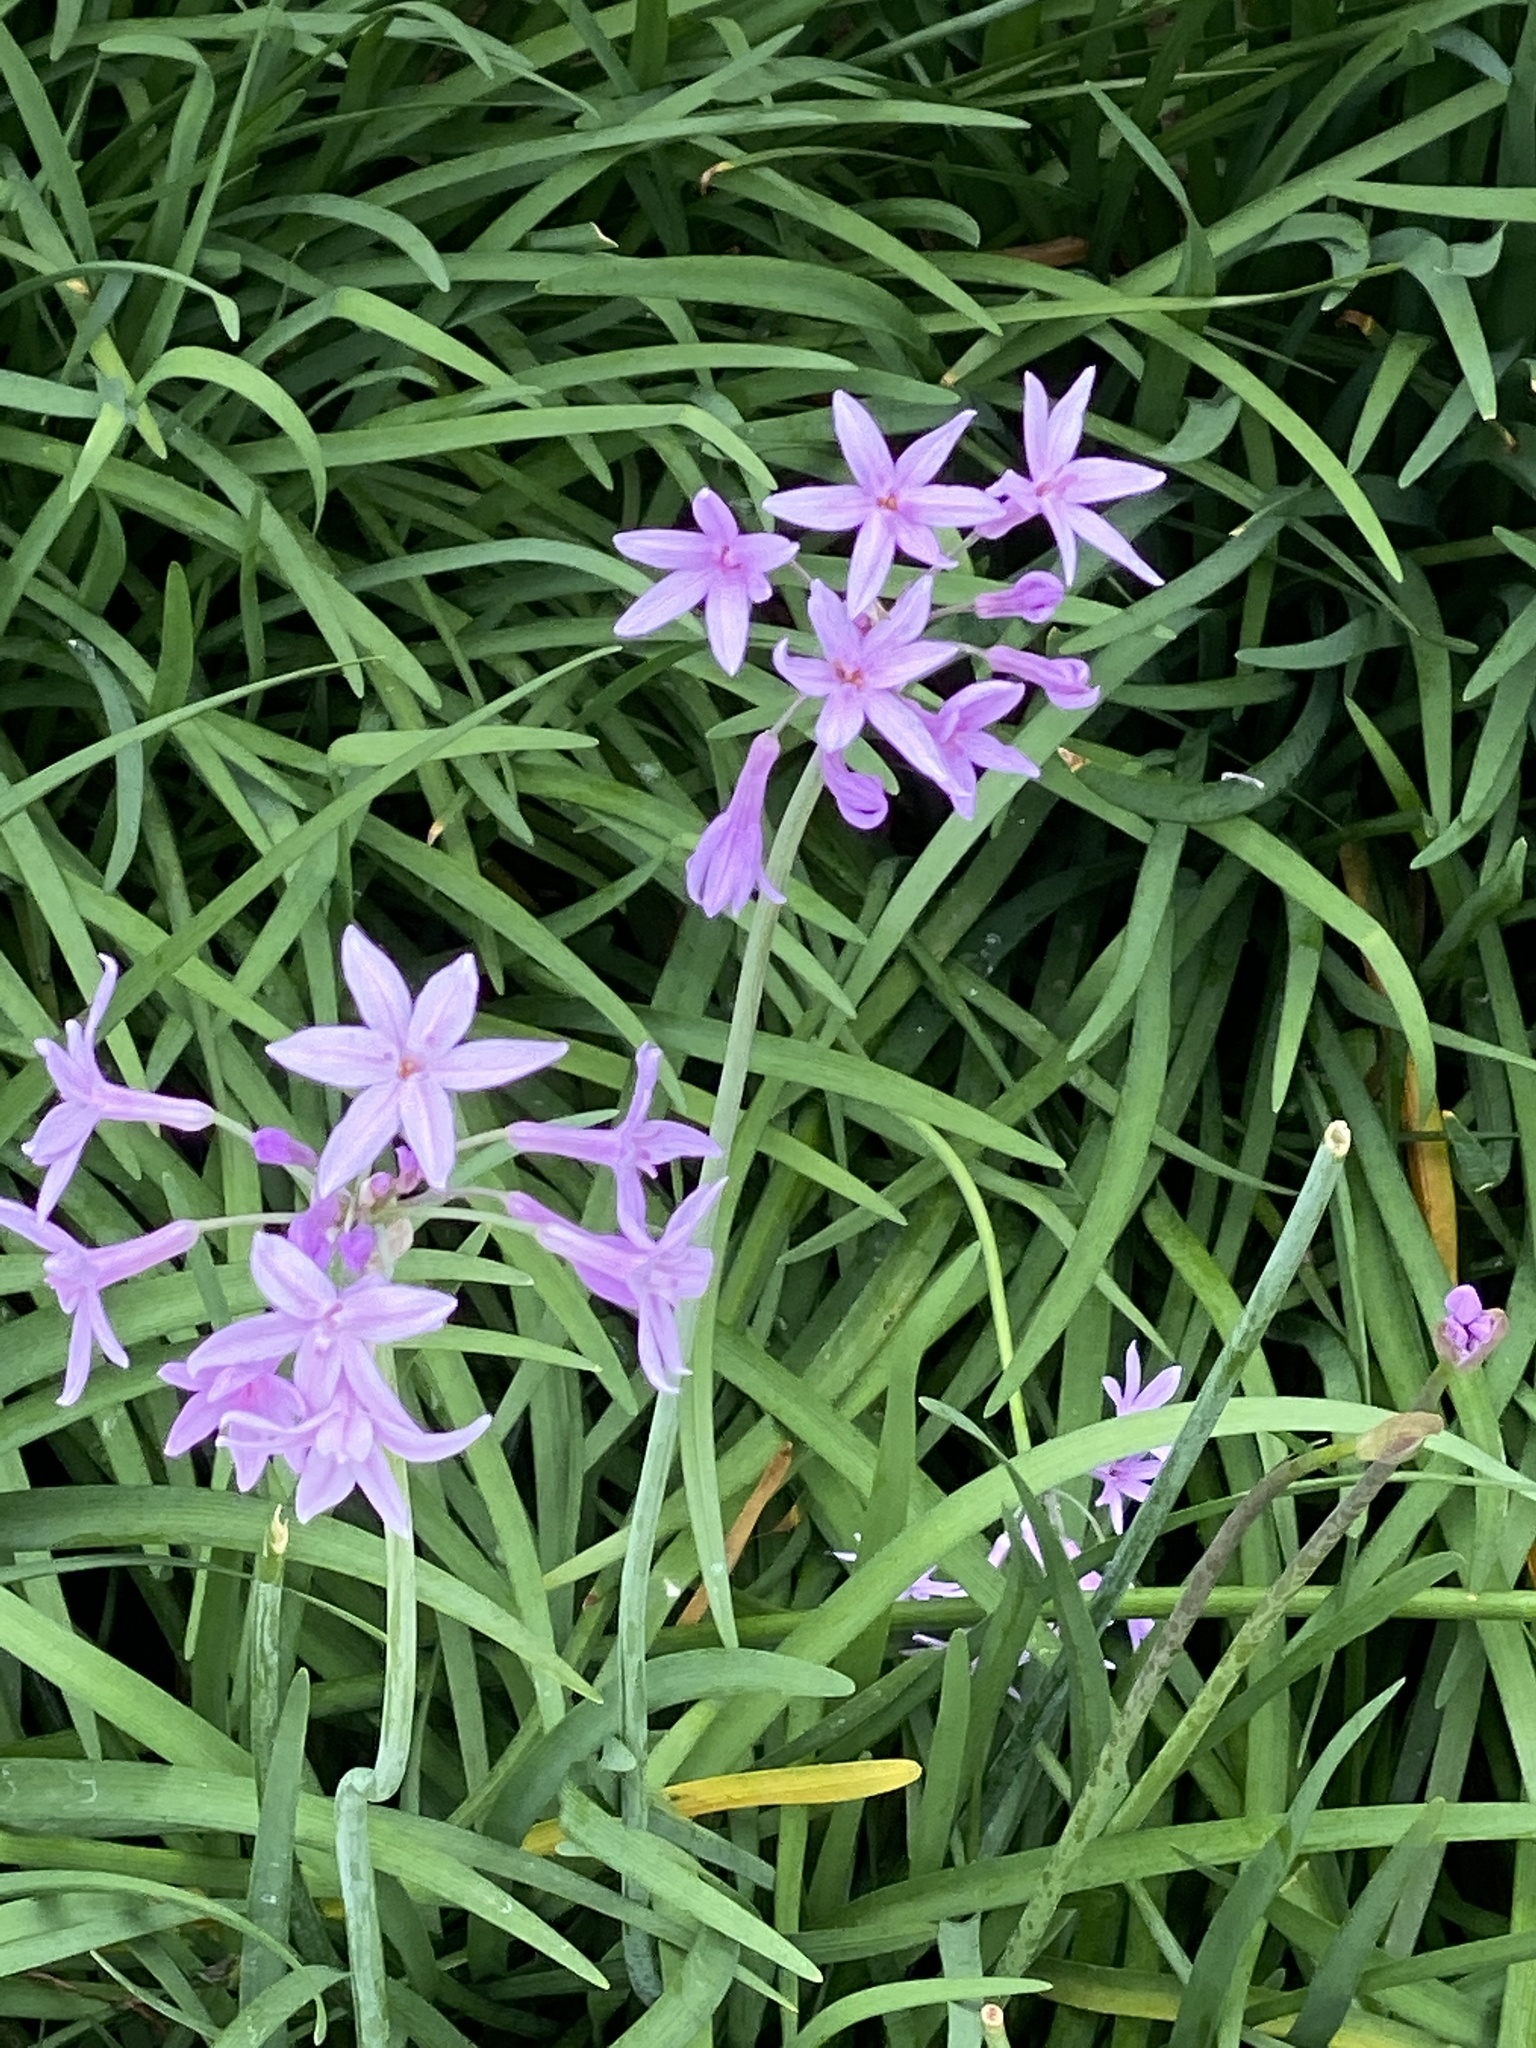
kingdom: Plantae
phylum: Tracheophyta
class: Liliopsida
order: Asparagales
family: Amaryllidaceae
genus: Tulbaghia
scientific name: Tulbaghia violacea
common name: Society garlic
